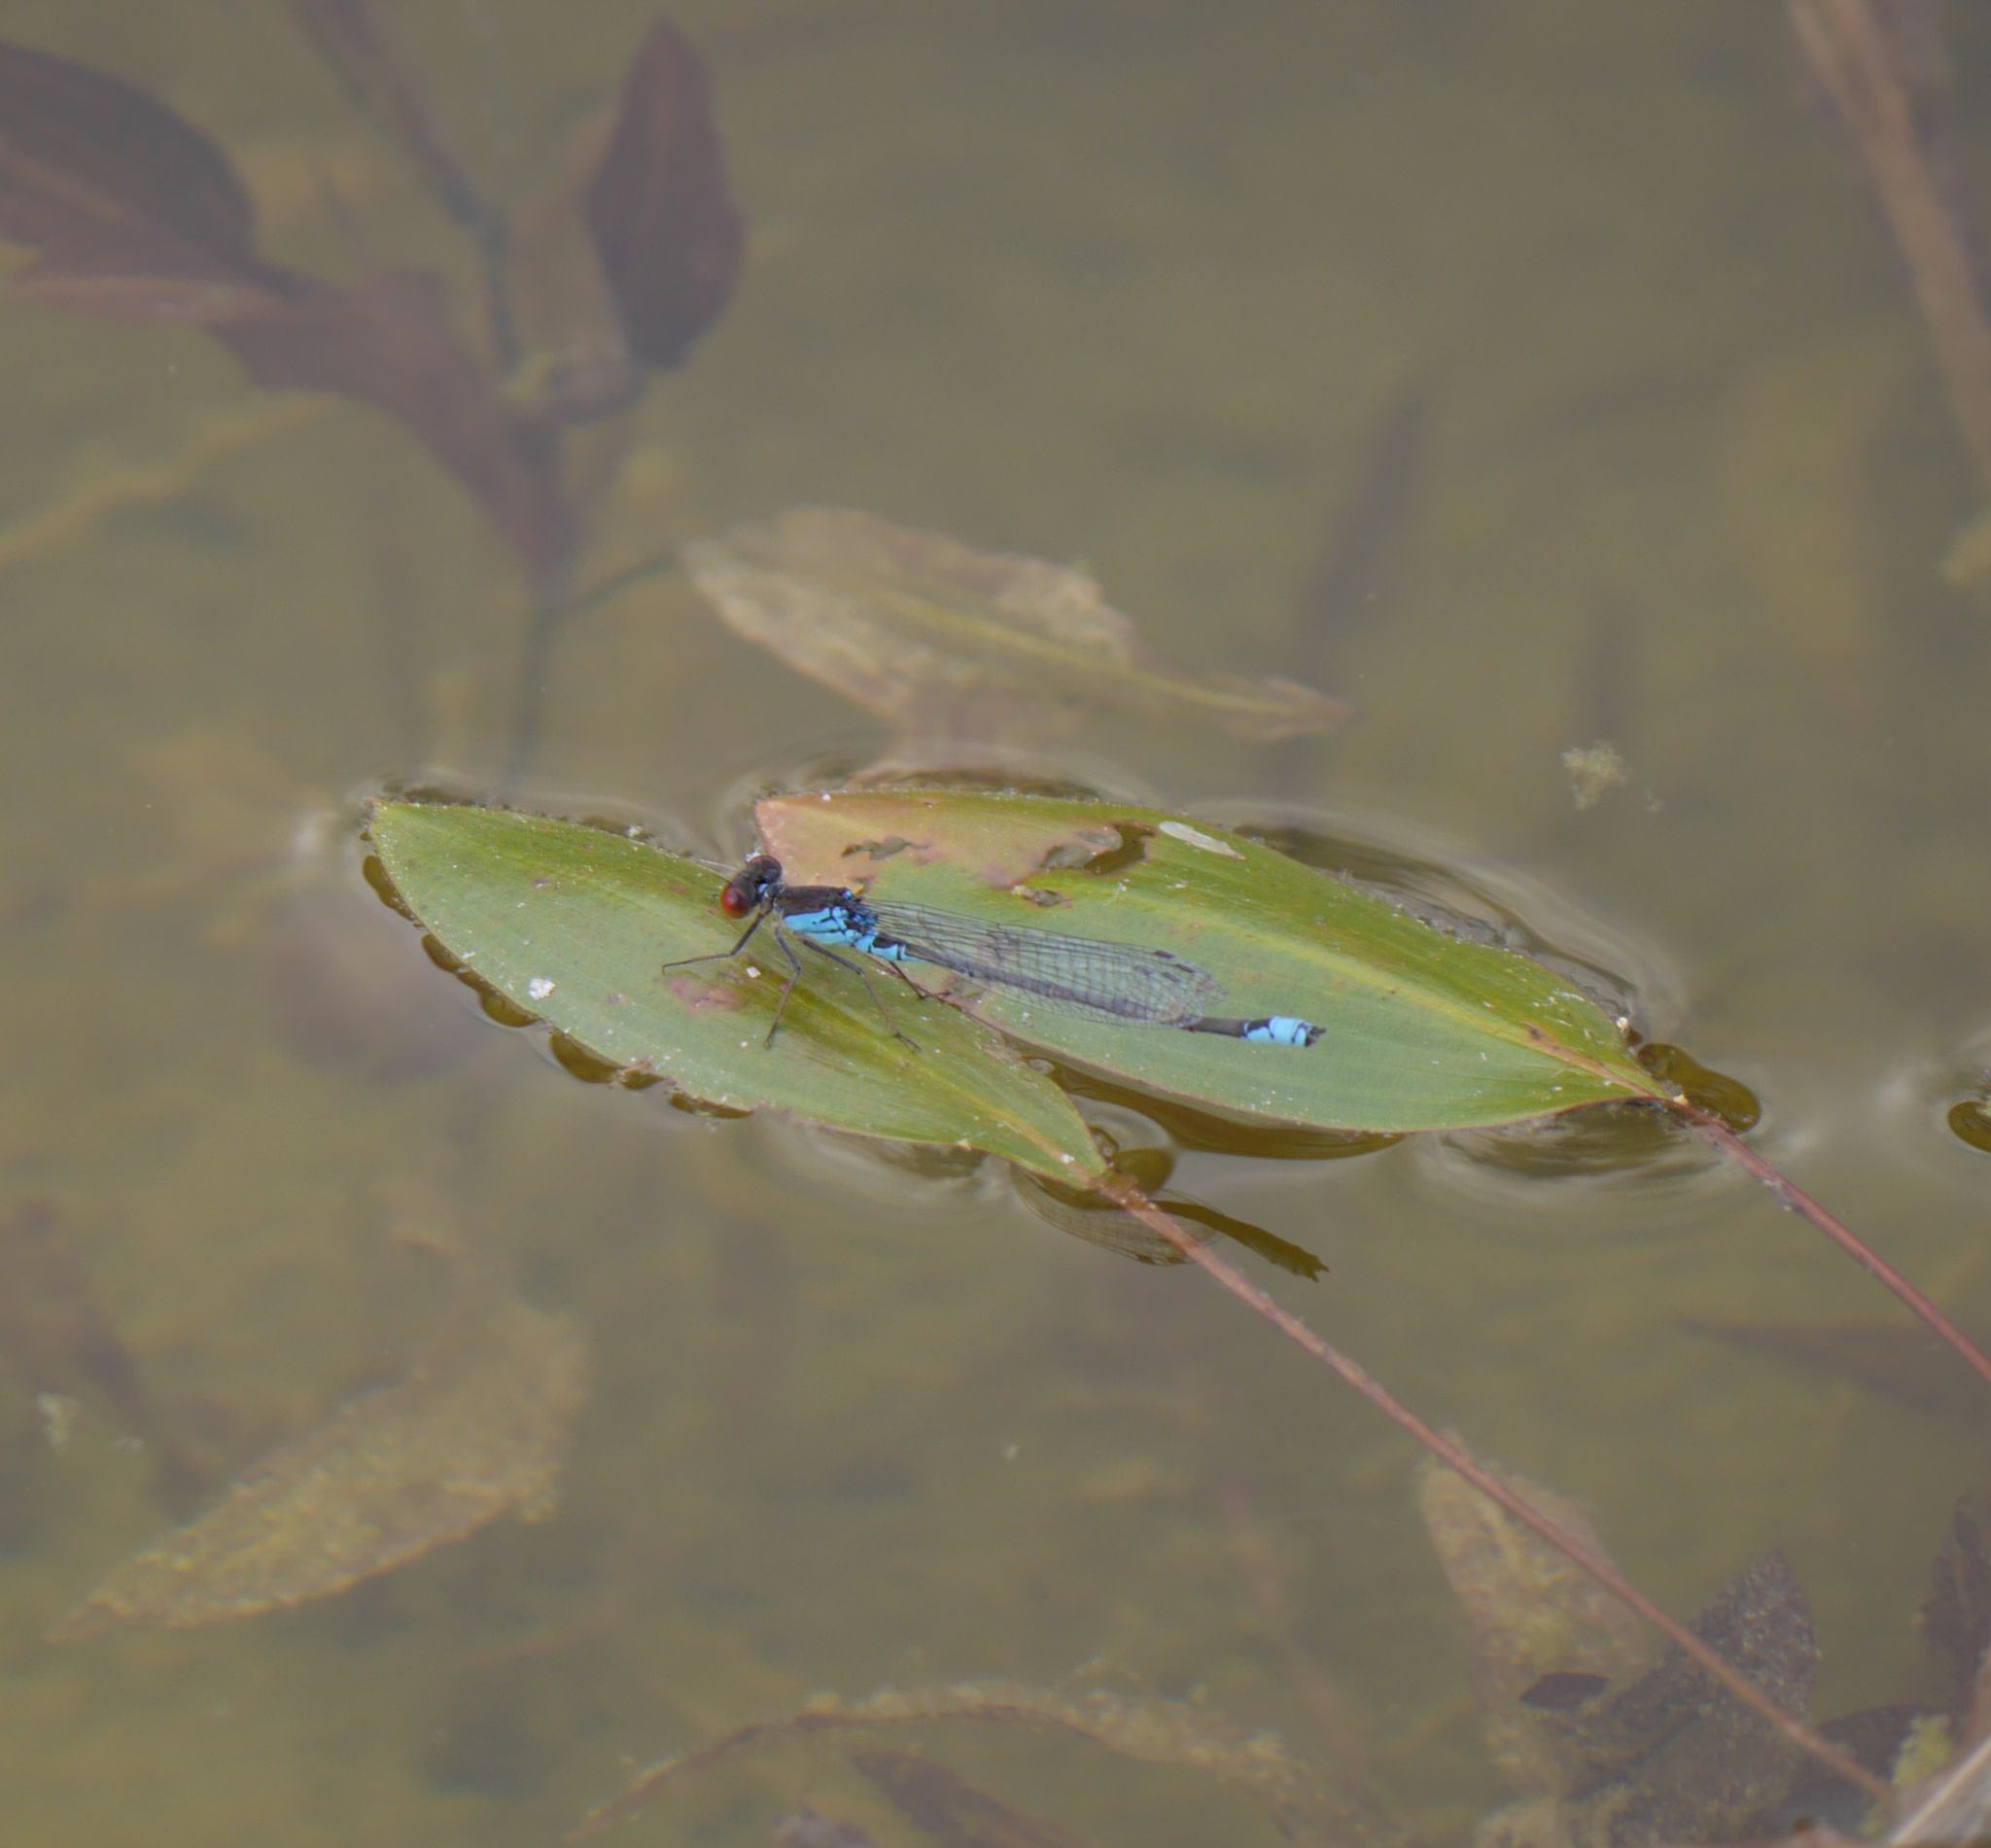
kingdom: Animalia
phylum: Arthropoda
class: Insecta
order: Odonata
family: Coenagrionidae
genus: Erythromma
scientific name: Erythromma viridulum
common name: Small red-eyed damselfly
